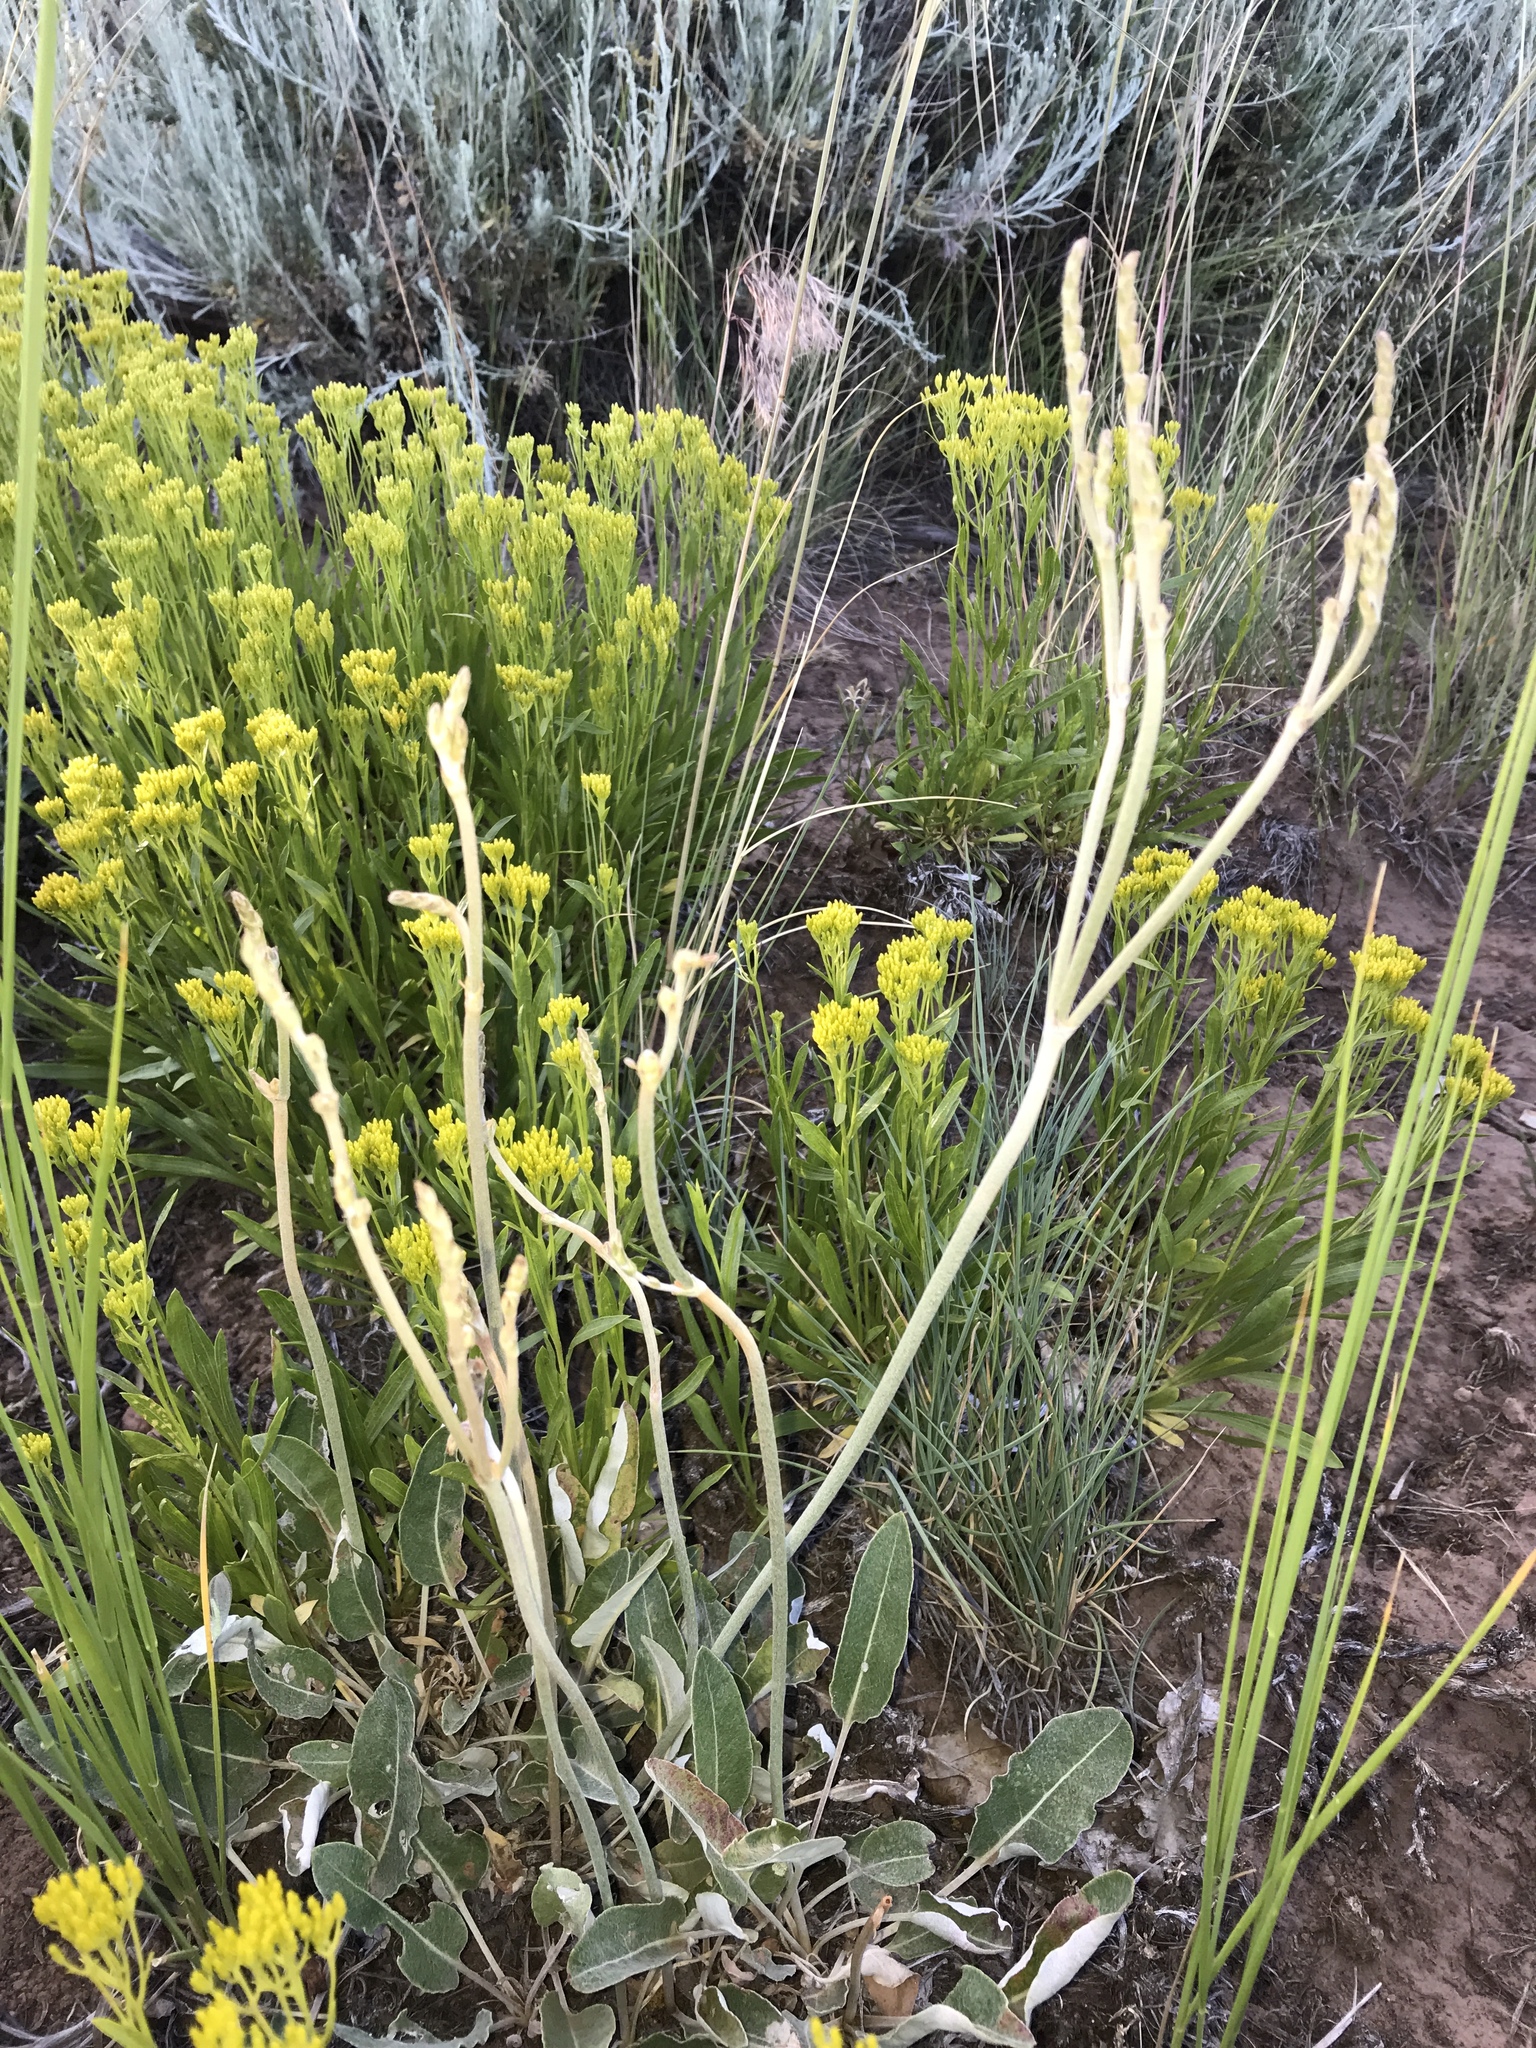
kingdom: Plantae
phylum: Tracheophyta
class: Magnoliopsida
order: Caryophyllales
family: Polygonaceae
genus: Eriogonum
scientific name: Eriogonum racemosum
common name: Redroot wild buckwheat
